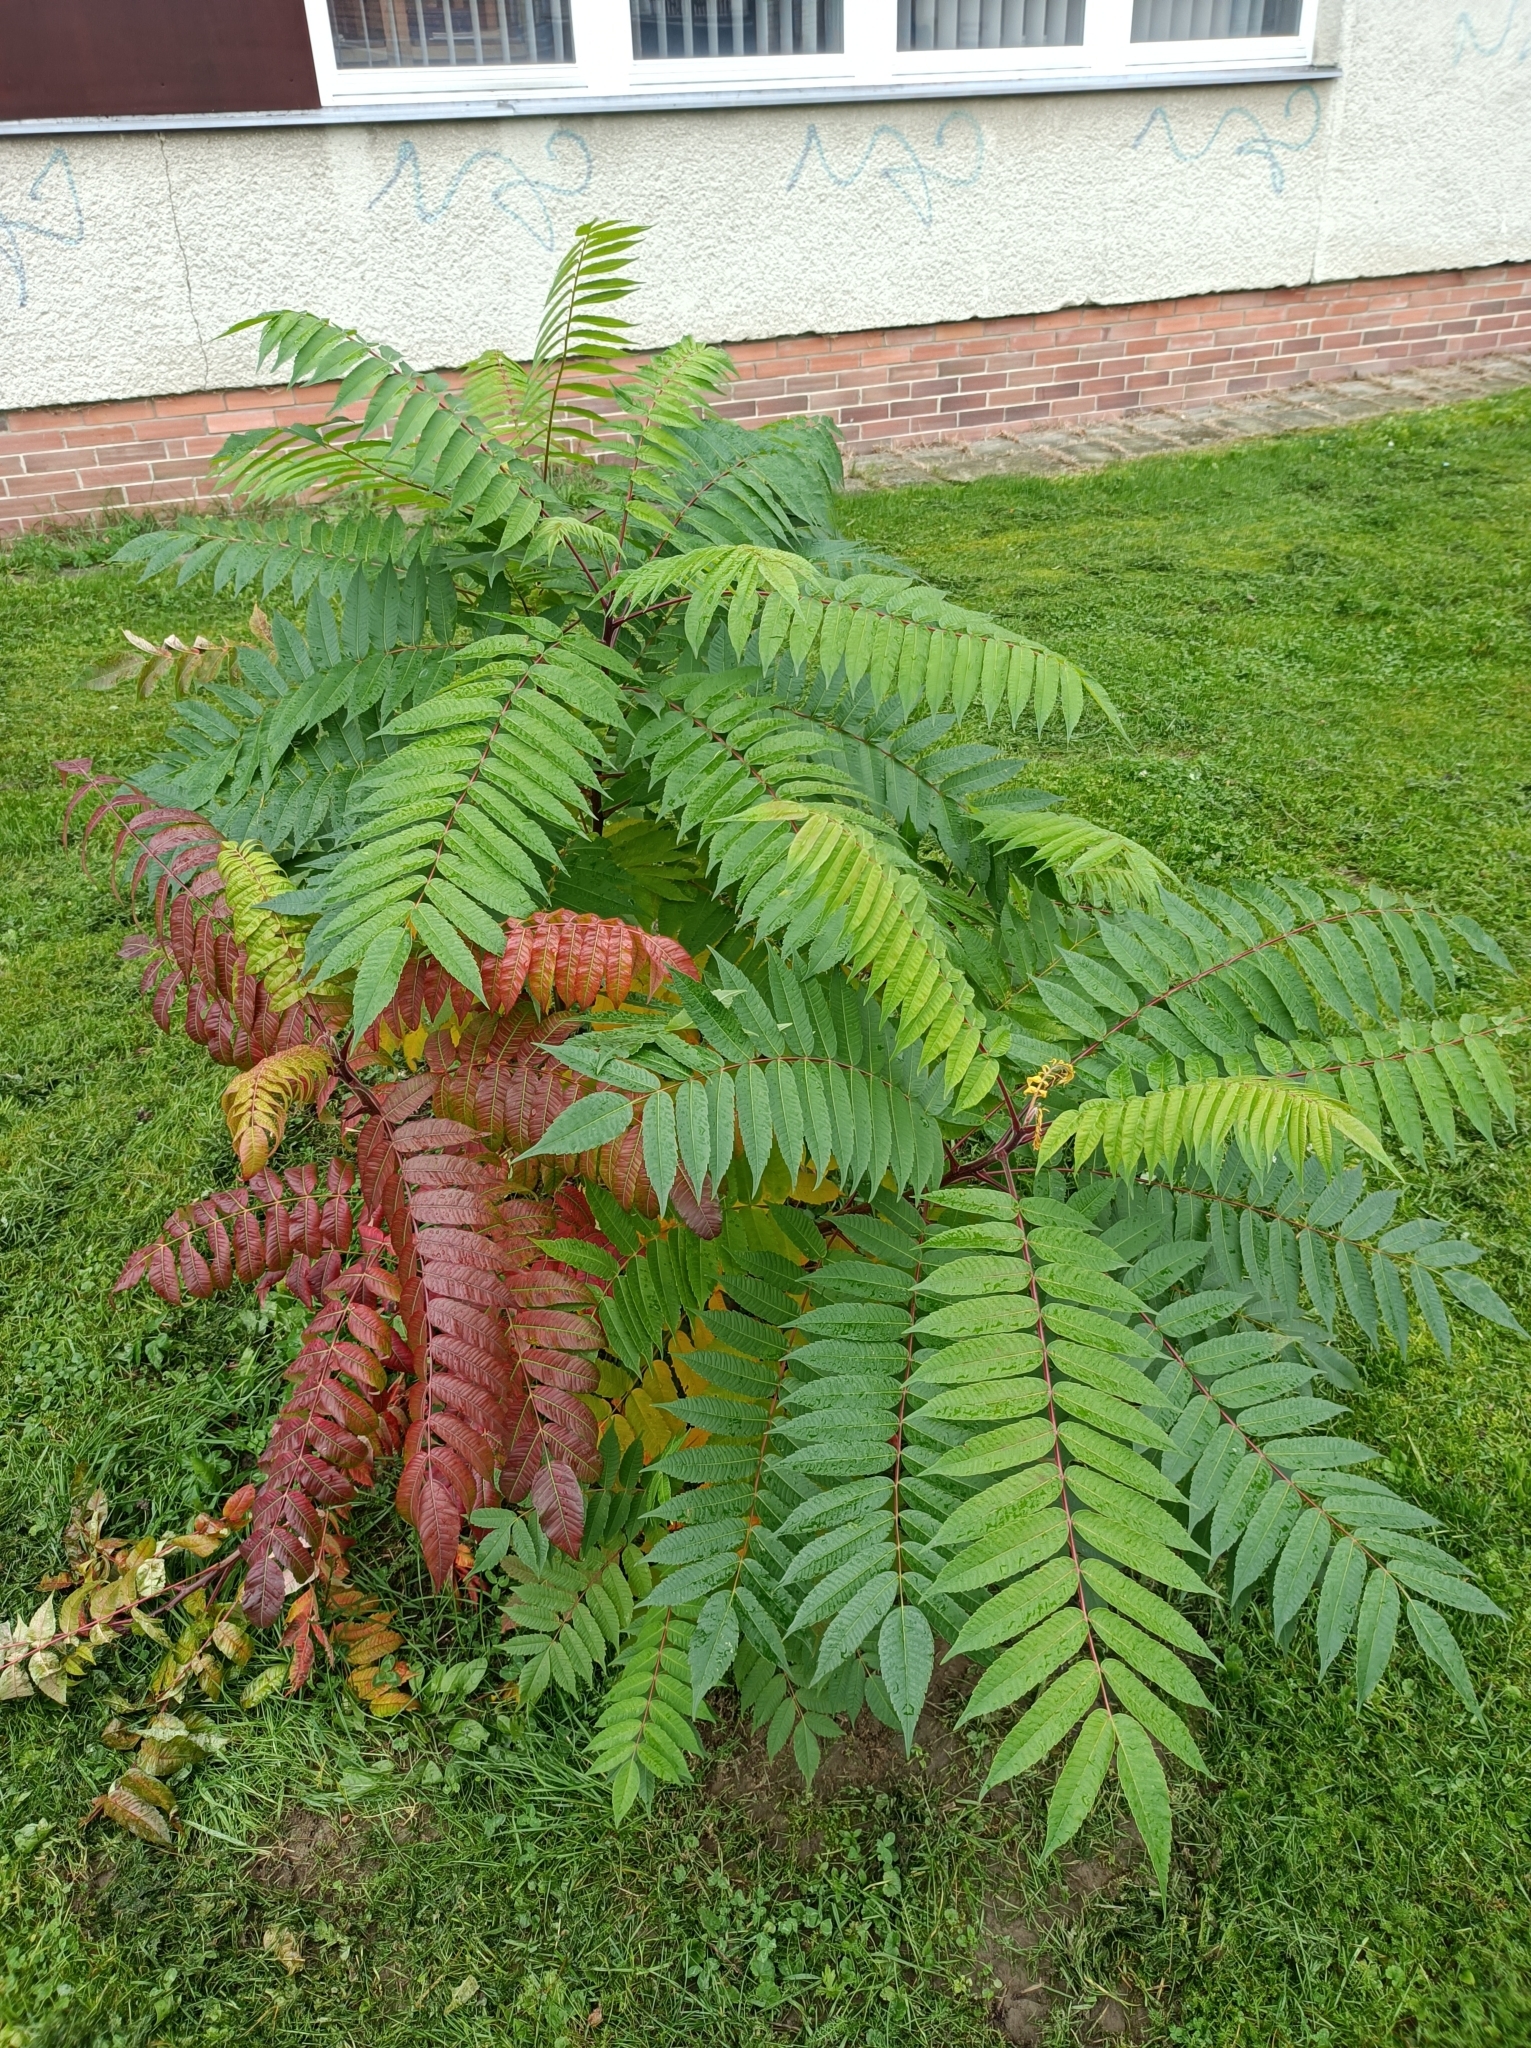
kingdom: Plantae
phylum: Tracheophyta
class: Magnoliopsida
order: Sapindales
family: Anacardiaceae
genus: Rhus
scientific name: Rhus typhina
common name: Staghorn sumac
